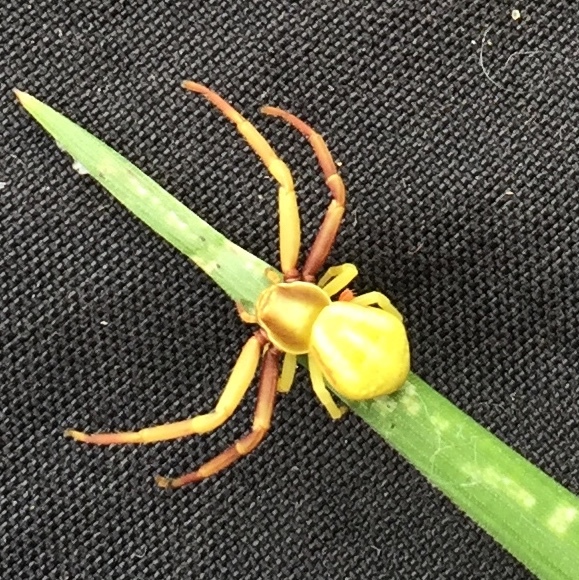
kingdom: Animalia
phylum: Arthropoda
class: Arachnida
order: Araneae
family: Thomisidae
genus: Misumenoides
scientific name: Misumenoides formosipes
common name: White-banded crab spider
